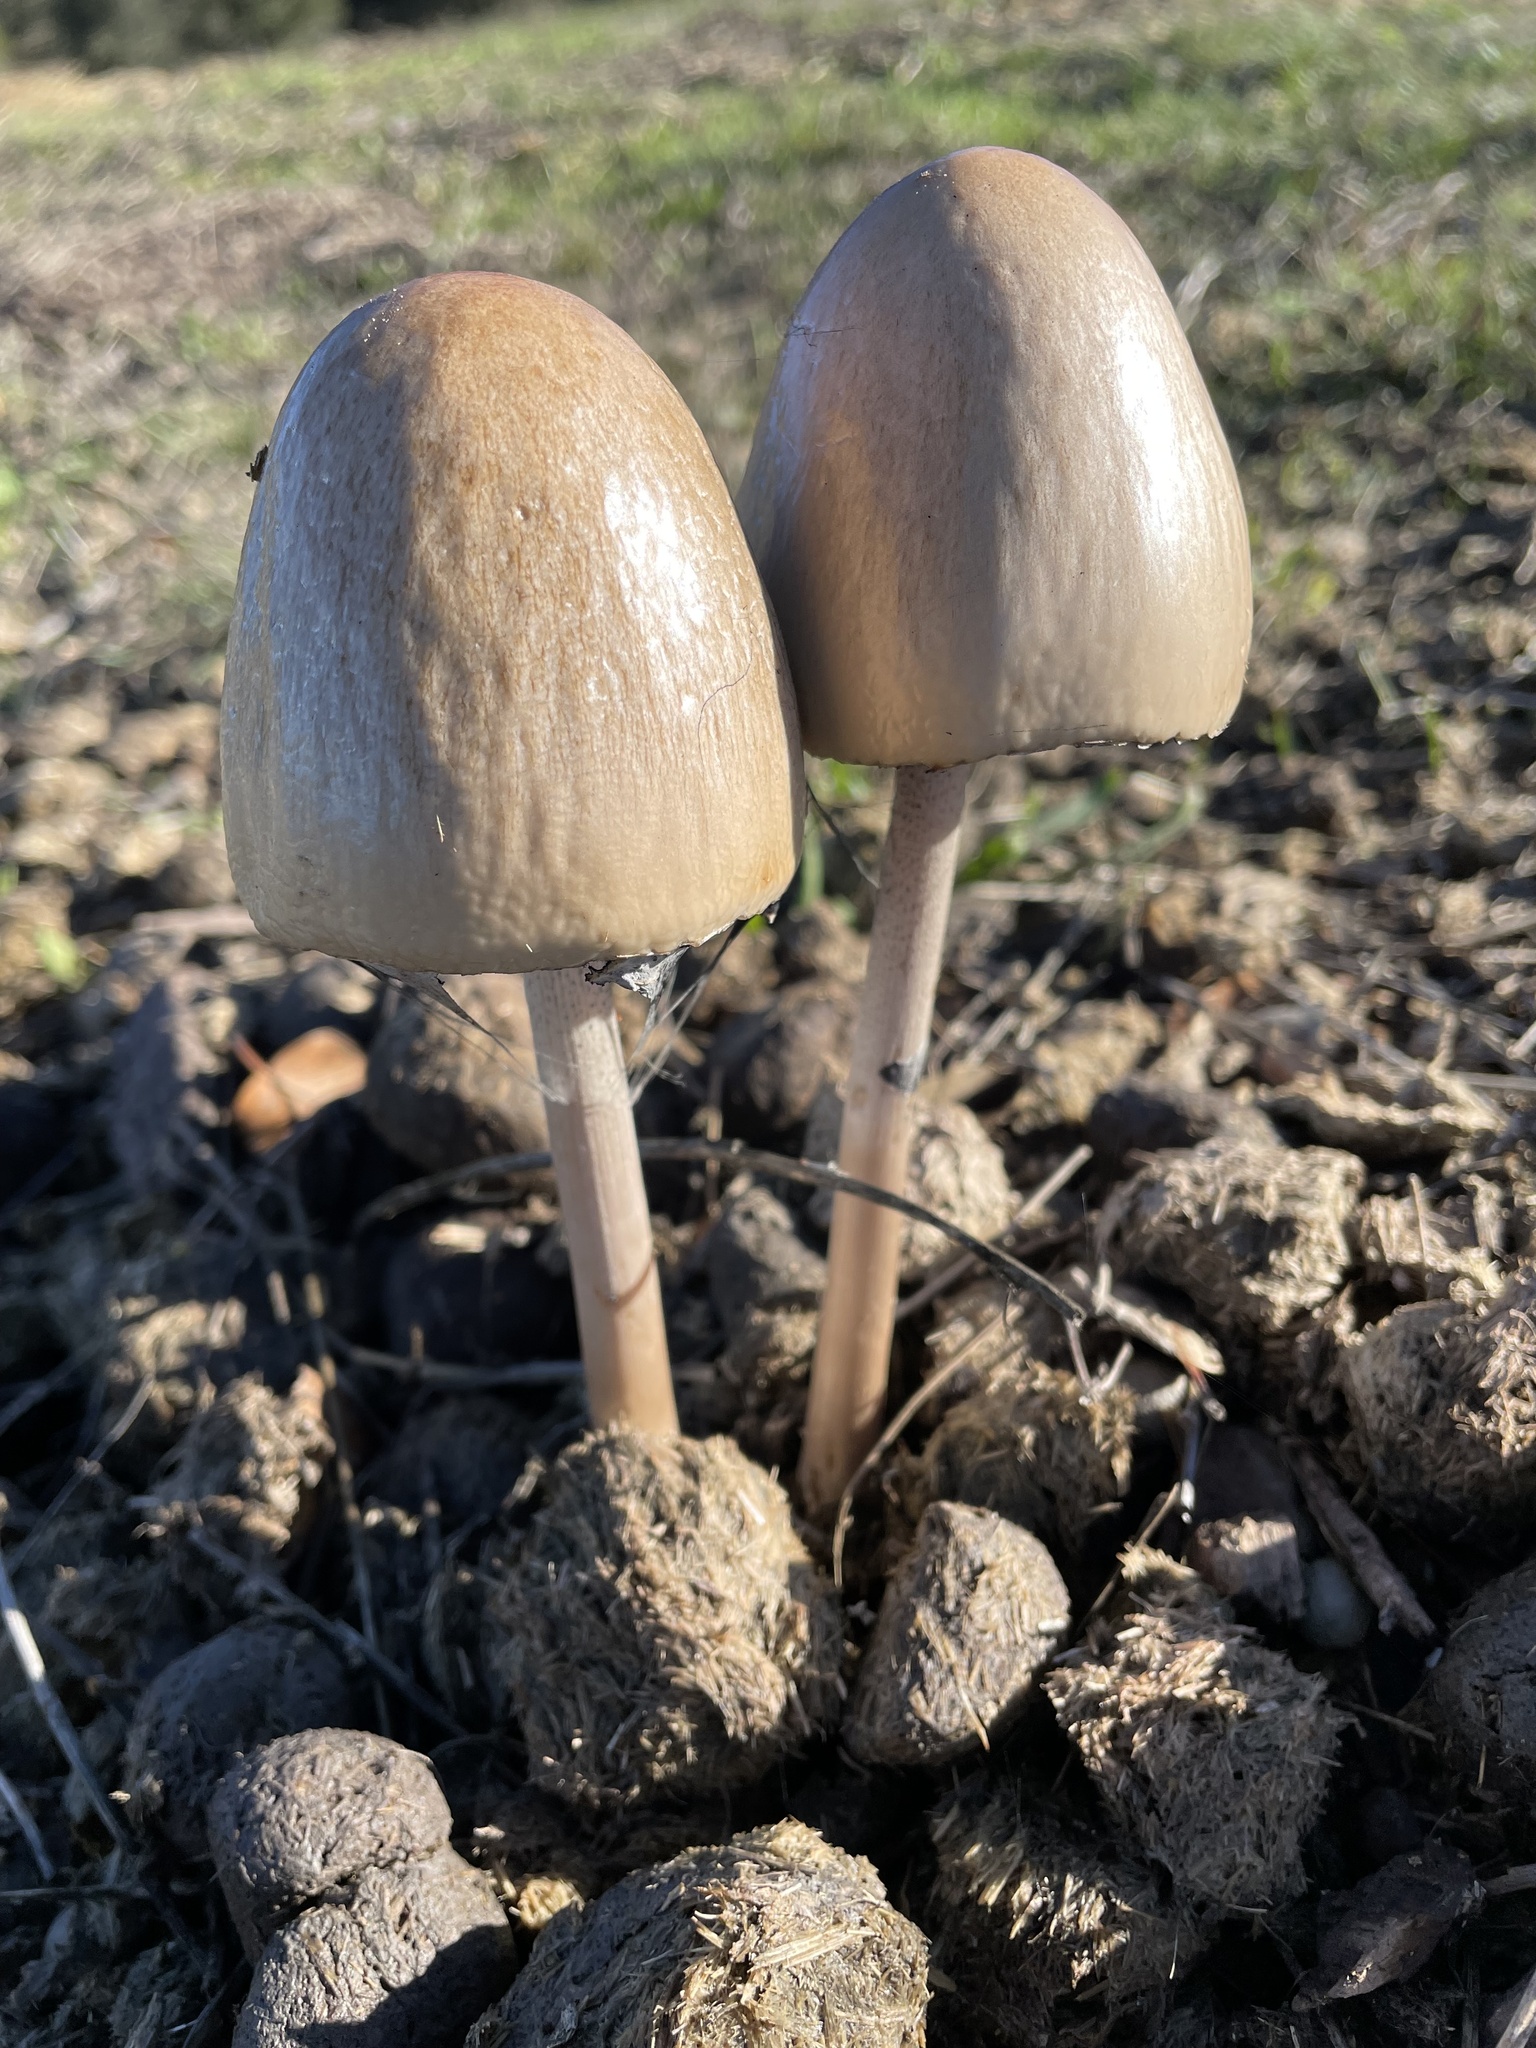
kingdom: Fungi
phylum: Basidiomycota
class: Agaricomycetes
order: Agaricales
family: Bolbitiaceae
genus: Panaeolus
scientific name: Panaeolus semiovatus
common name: Shiny mottlegill
